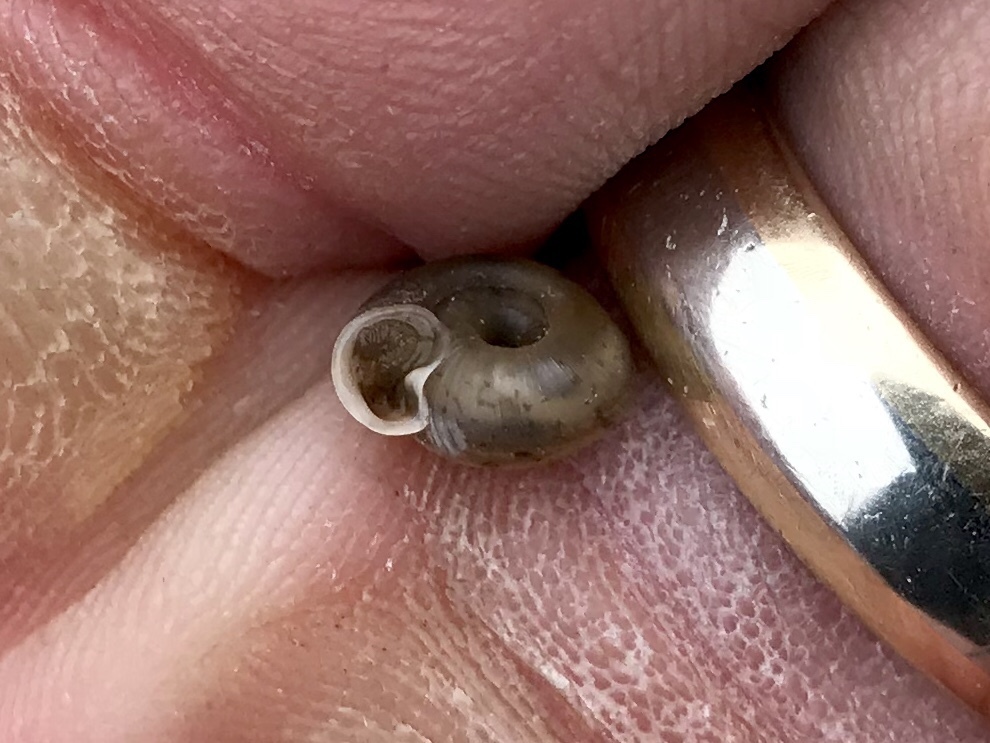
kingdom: Animalia
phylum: Mollusca
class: Gastropoda
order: Stylommatophora
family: Polygyridae
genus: Polygyra
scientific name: Polygyra cereolus
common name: Southern flatcone snail
